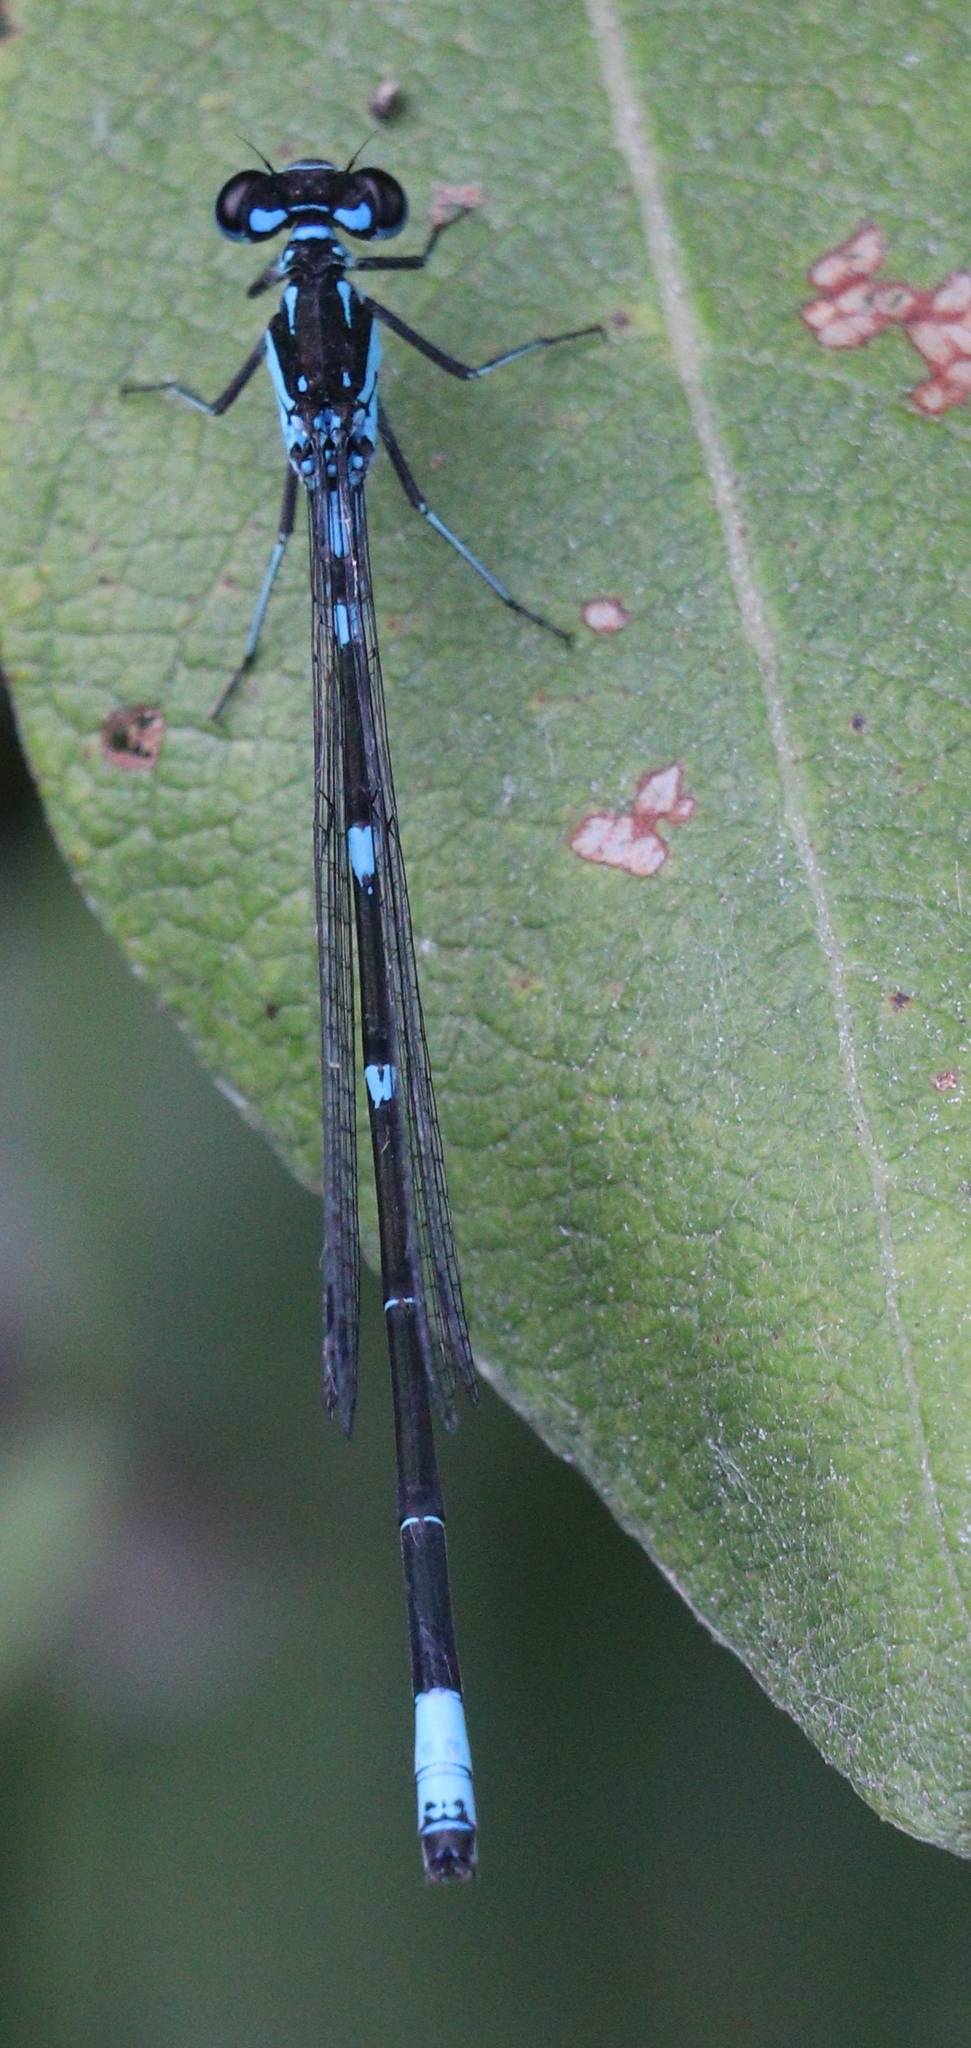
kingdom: Animalia
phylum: Arthropoda
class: Insecta
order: Odonata
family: Coenagrionidae
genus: Coenagrion
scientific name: Coenagrion pulchellum
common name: Variable bluet
